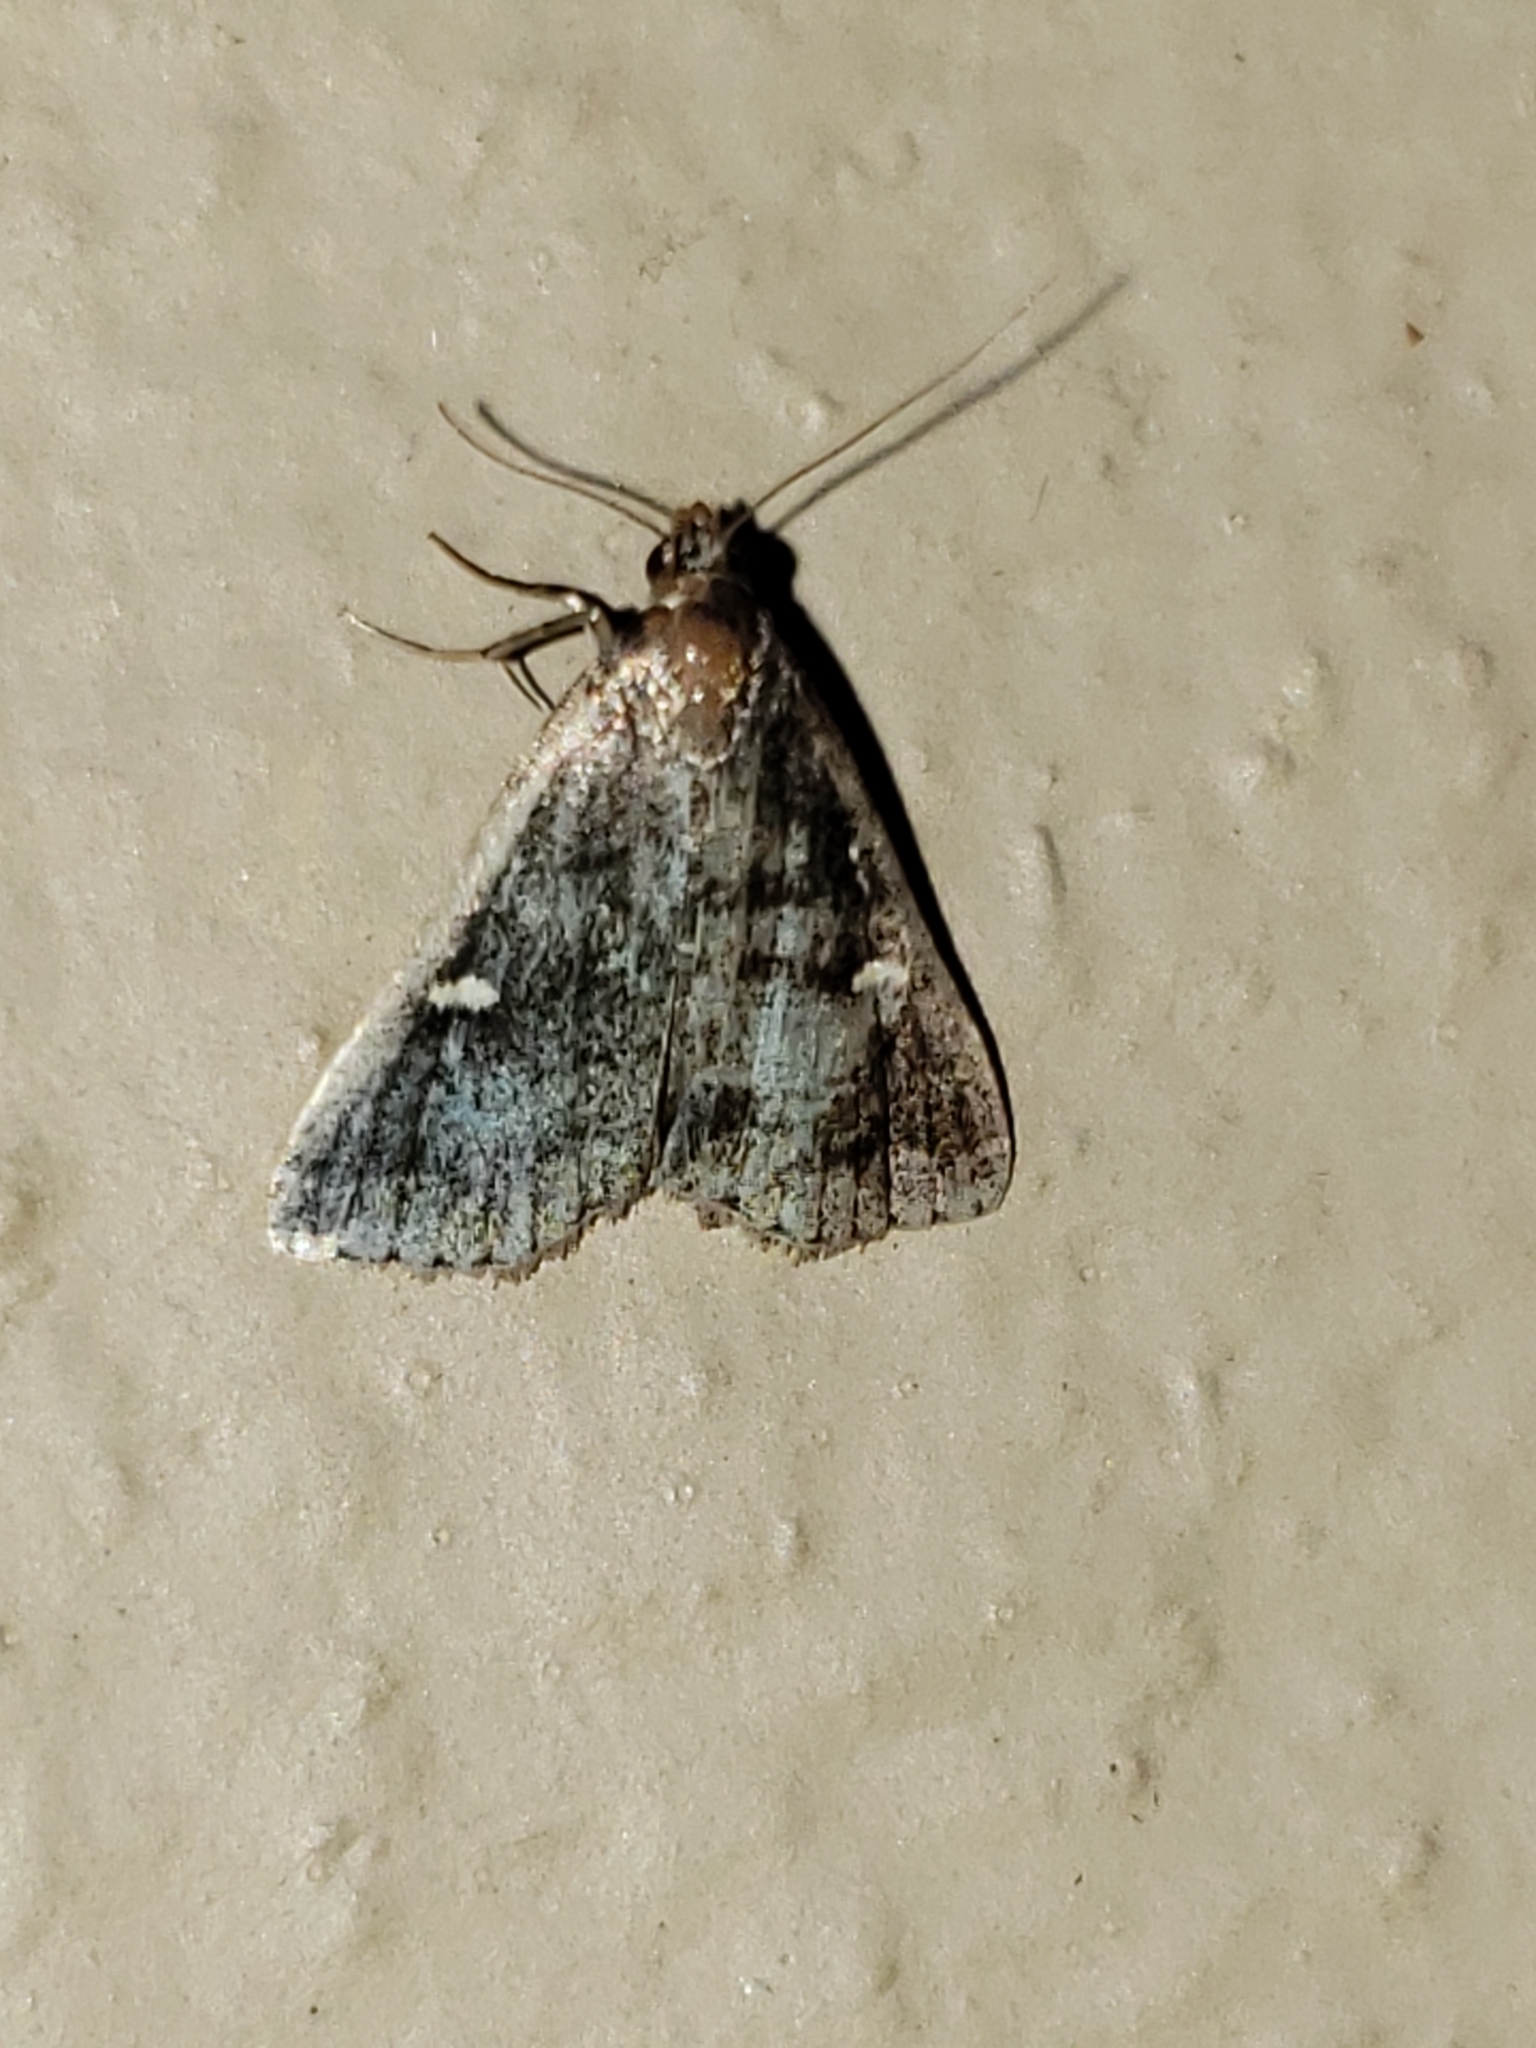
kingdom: Animalia
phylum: Arthropoda
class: Insecta
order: Lepidoptera
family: Erebidae
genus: Tetanolita
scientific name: Tetanolita mynesalis
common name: Smoky tetanolita moth
